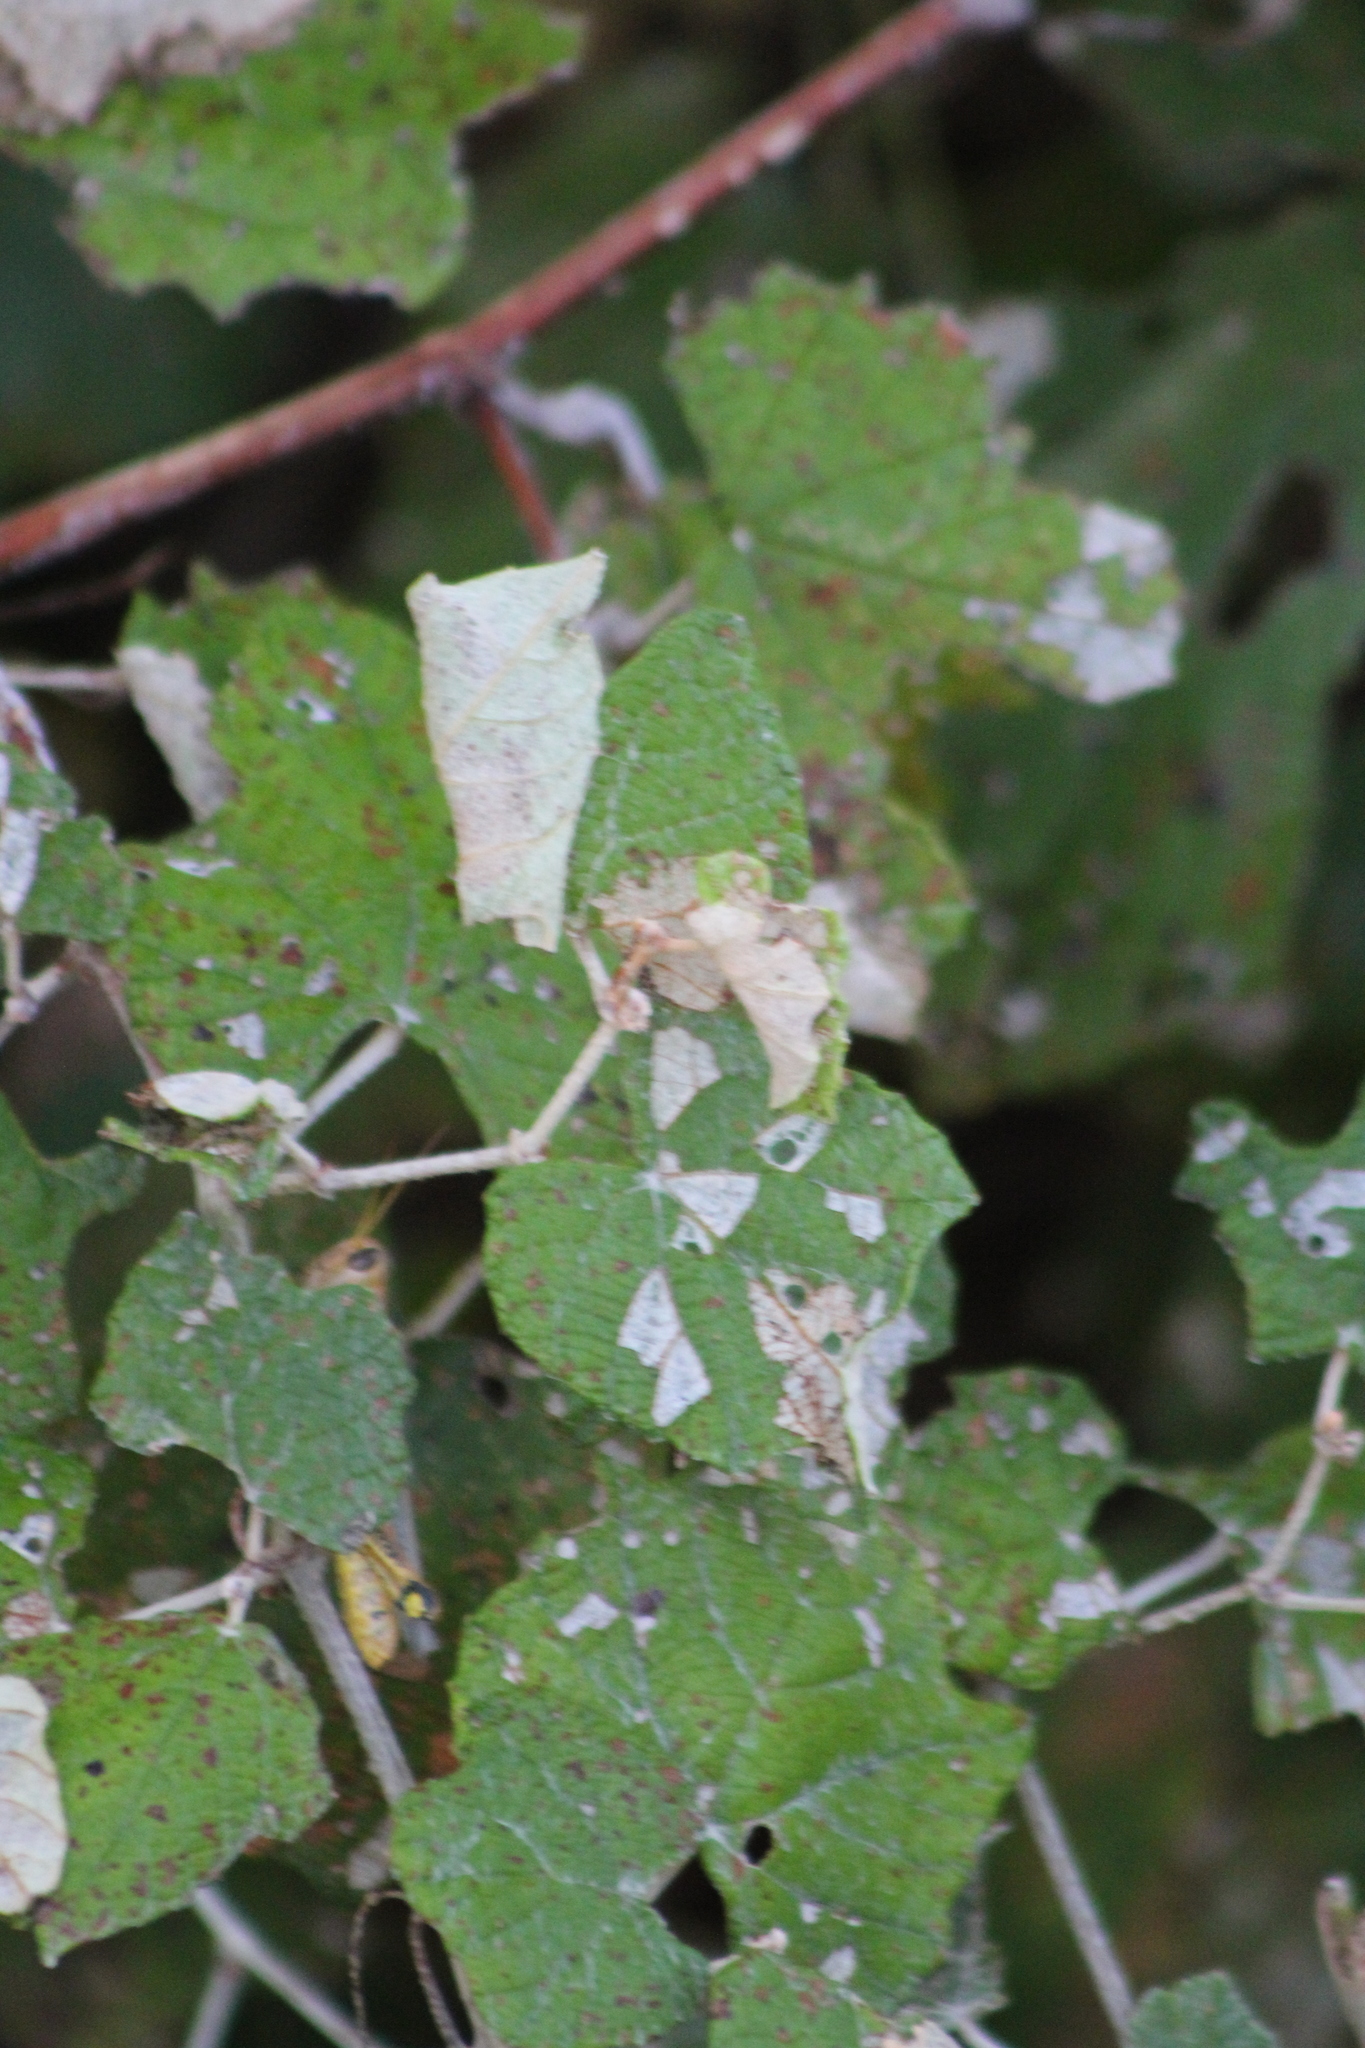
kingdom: Plantae
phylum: Tracheophyta
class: Magnoliopsida
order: Vitales
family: Vitaceae
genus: Vitis
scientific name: Vitis mustangensis
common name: Mustang grape
